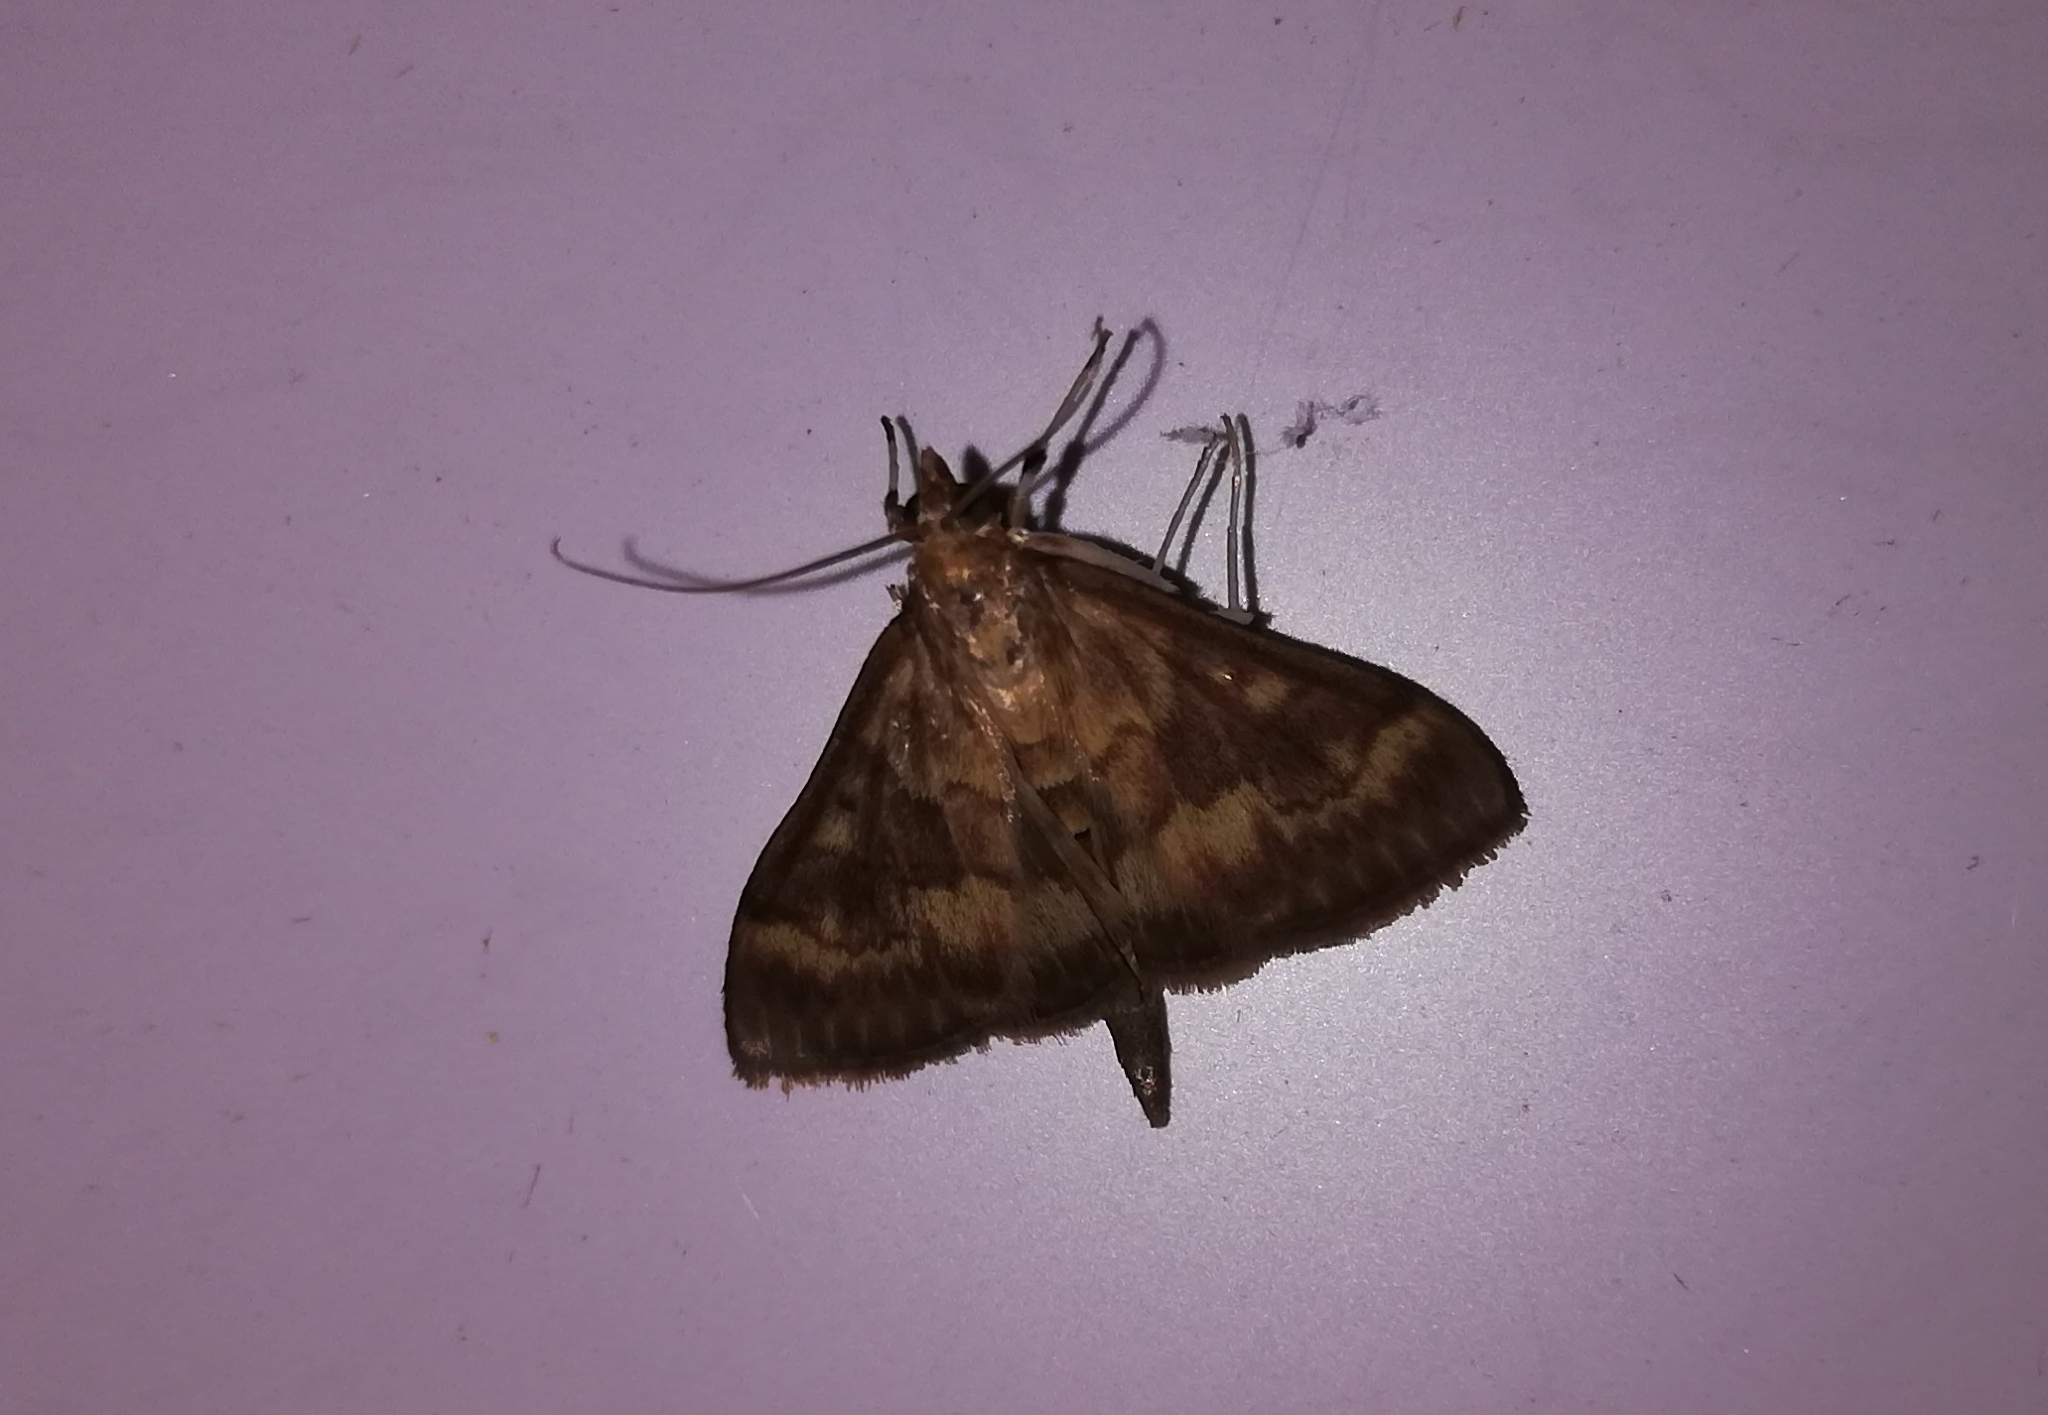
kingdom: Animalia
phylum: Arthropoda
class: Insecta
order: Lepidoptera
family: Crambidae
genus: Ostrinia
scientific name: Ostrinia nubilalis
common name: European corn borer
